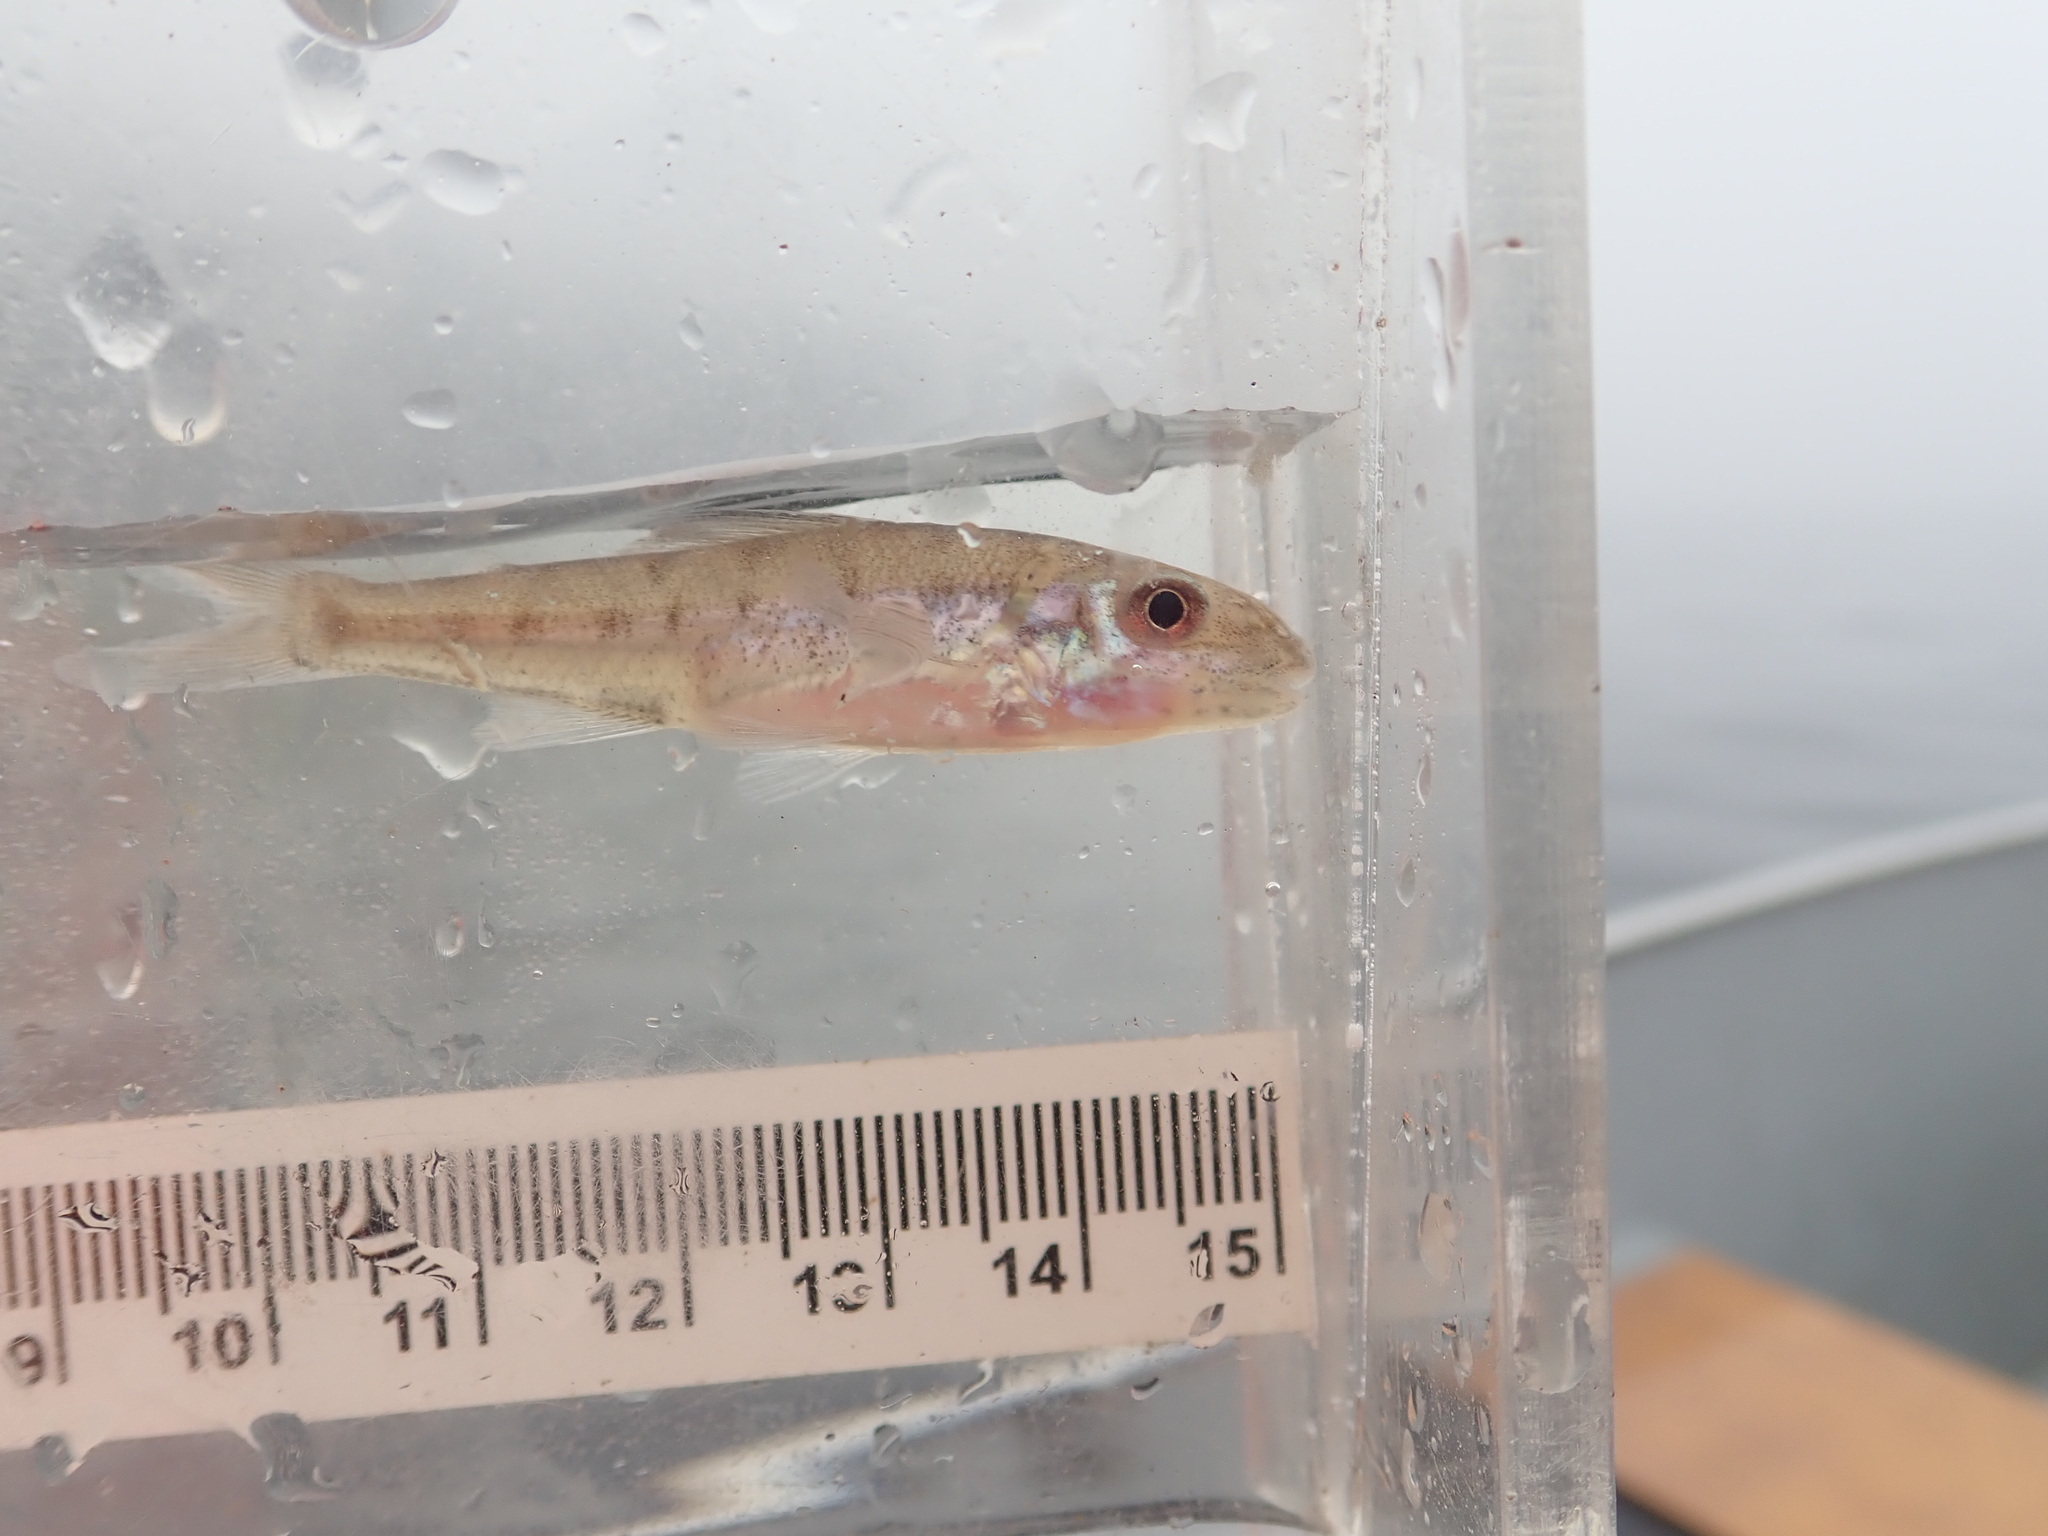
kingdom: Animalia
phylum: Chordata
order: Percopsiformes
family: Percopsidae
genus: Percopsis
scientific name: Percopsis omiscomaycus
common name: Trout-perch
